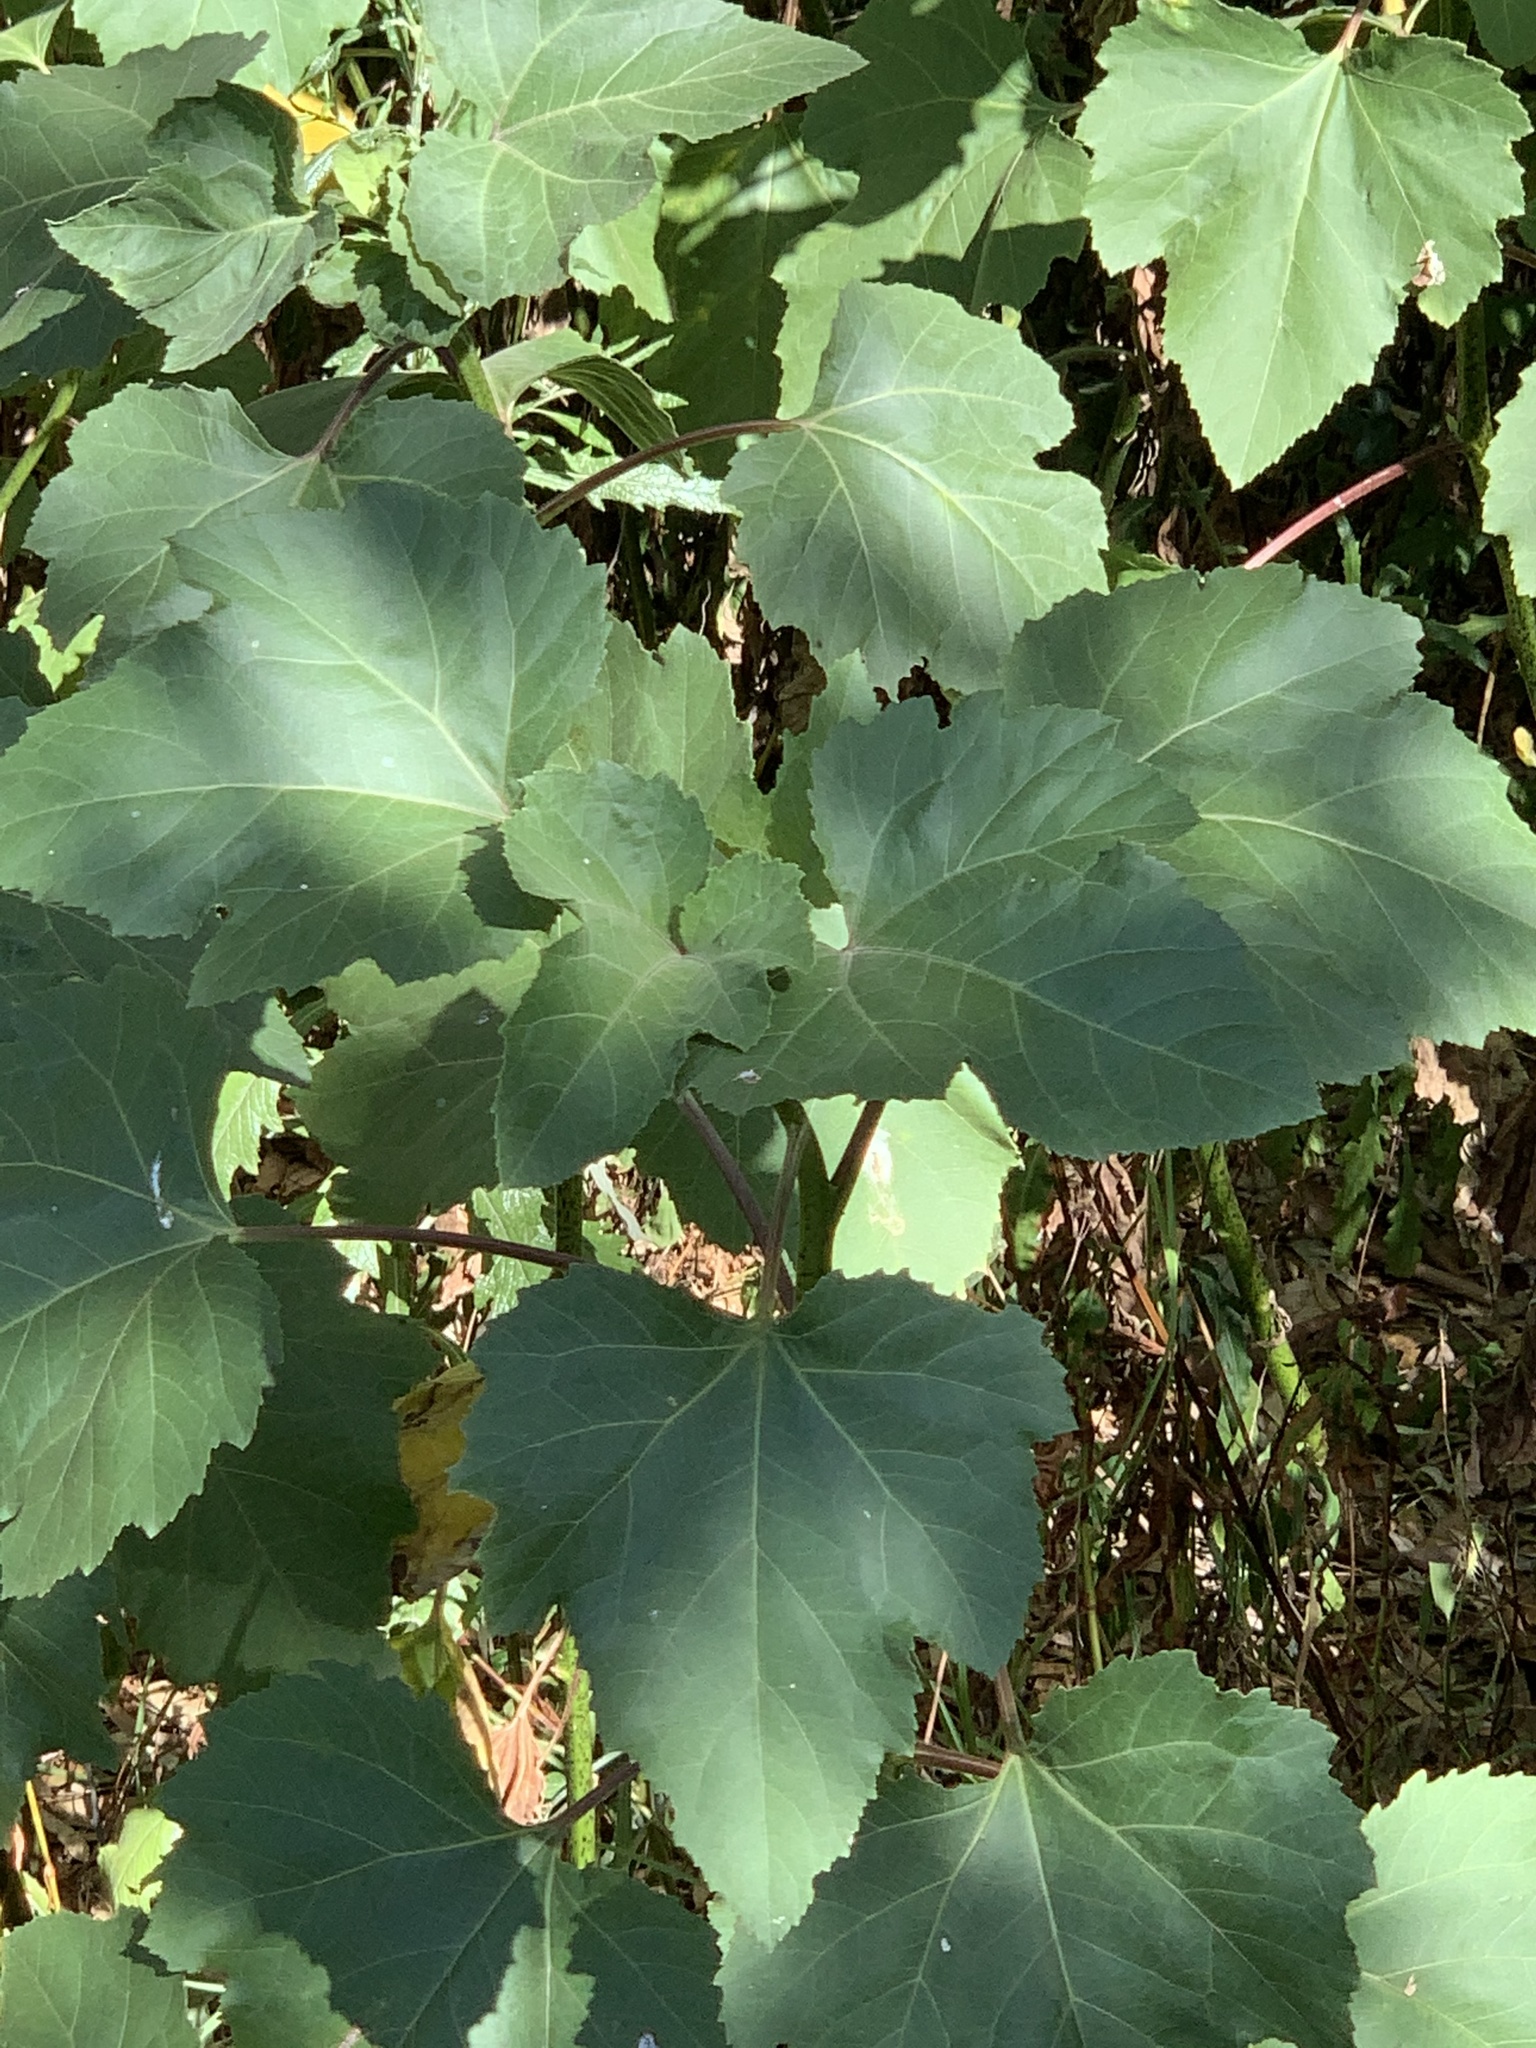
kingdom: Plantae
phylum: Tracheophyta
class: Magnoliopsida
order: Asterales
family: Asteraceae
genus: Xanthium
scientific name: Xanthium strumarium
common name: Rough cocklebur
